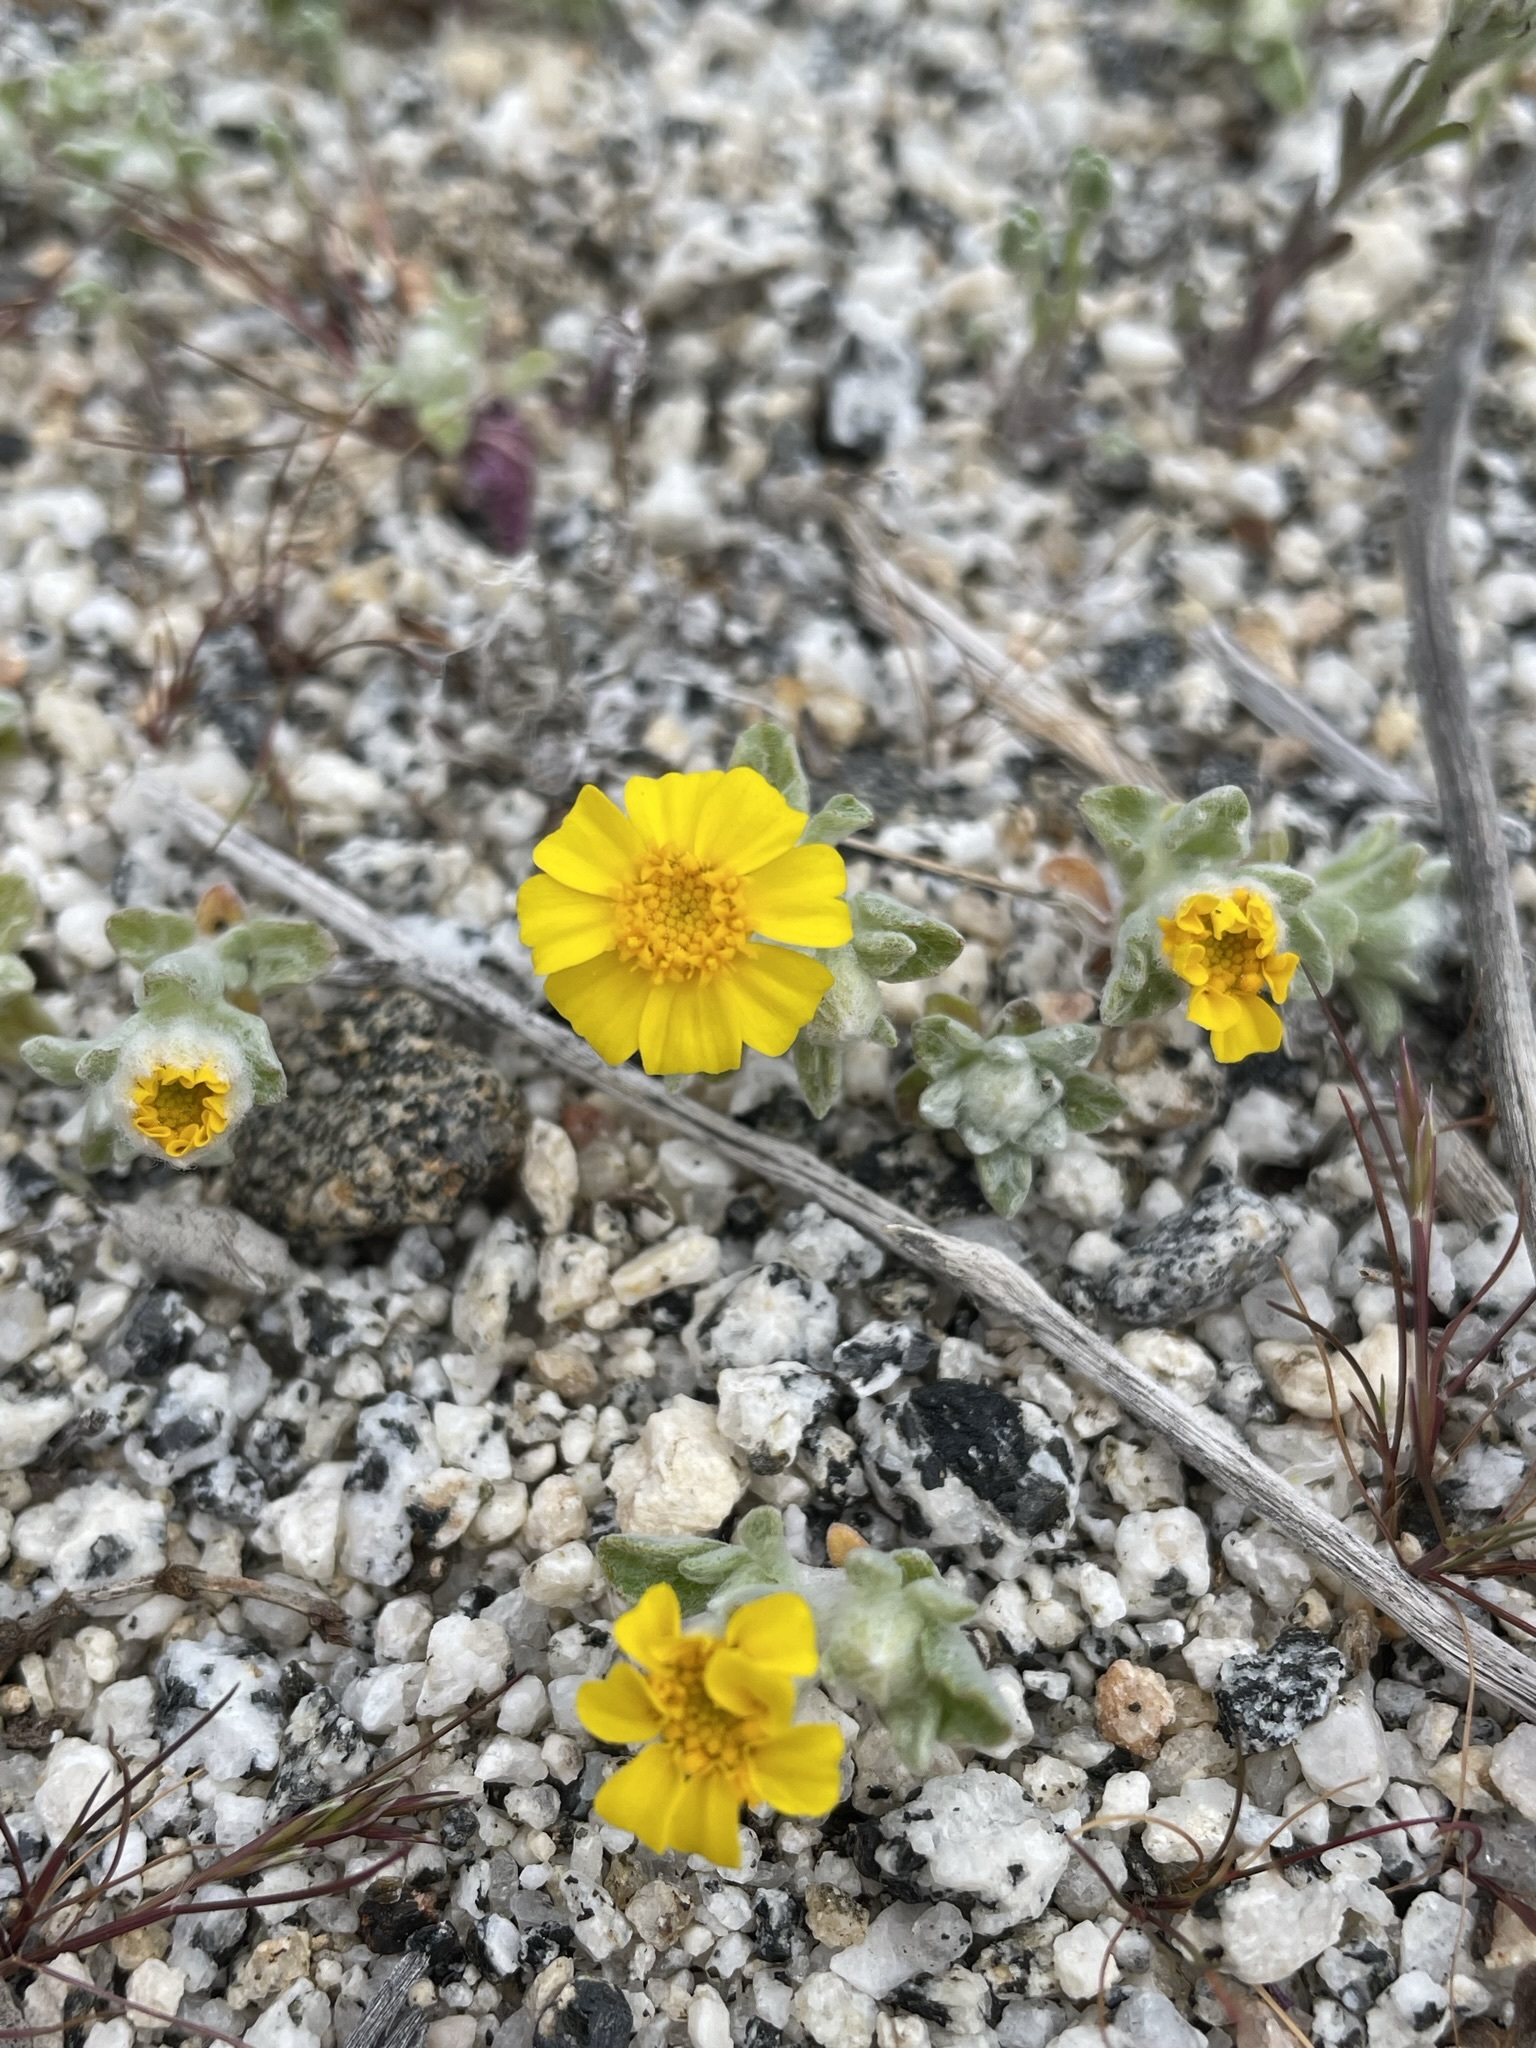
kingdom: Plantae
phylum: Tracheophyta
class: Magnoliopsida
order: Asterales
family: Asteraceae
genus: Eriophyllum
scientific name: Eriophyllum wallacei
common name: Wallace's woolly daisy
